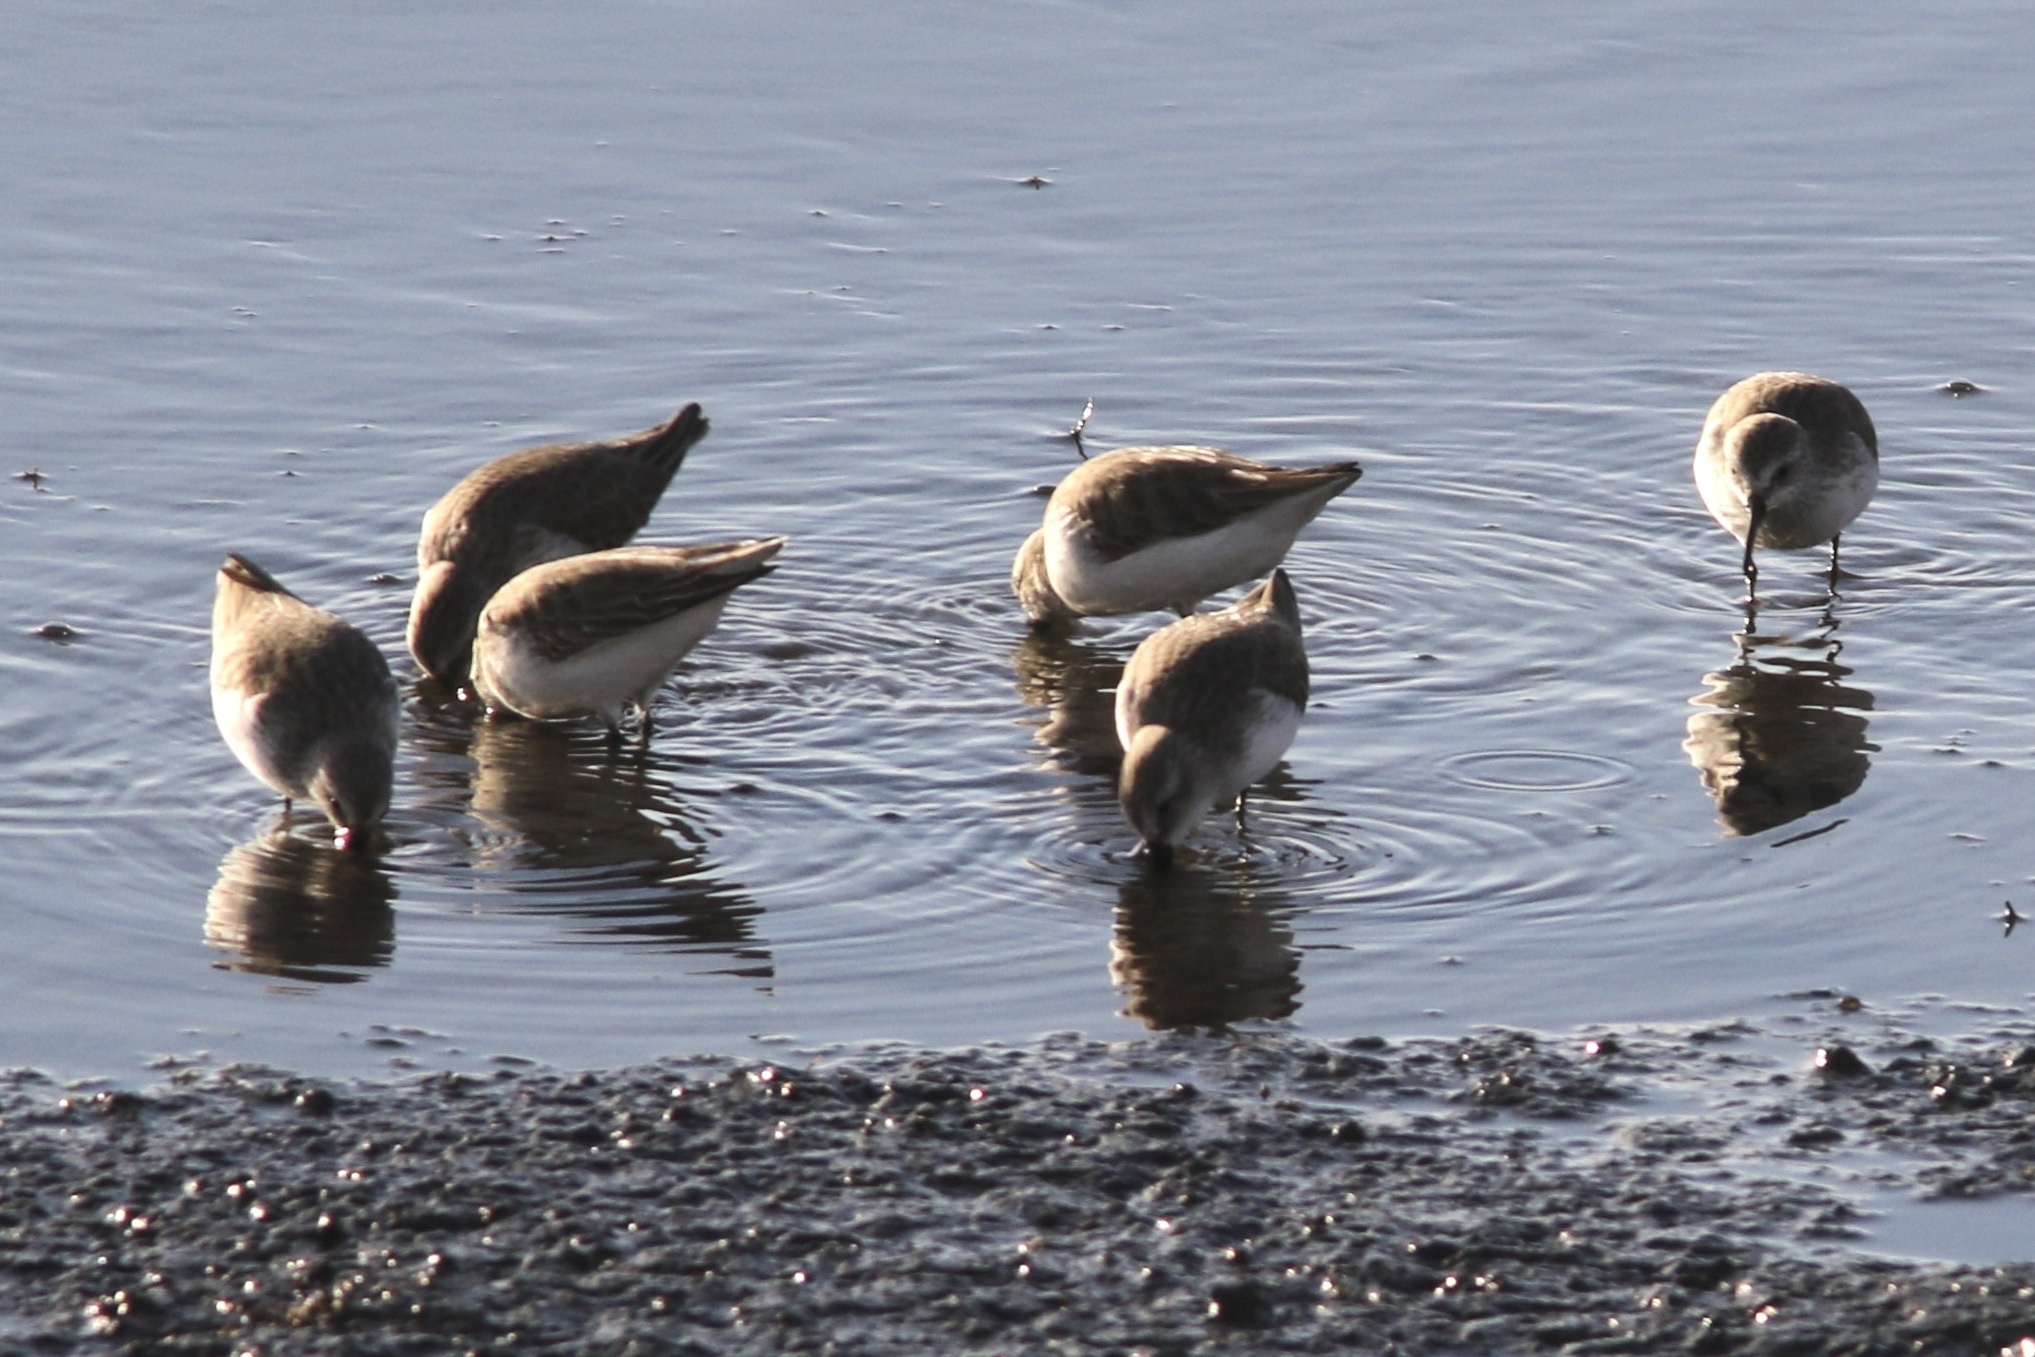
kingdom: Animalia
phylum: Chordata
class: Aves
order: Charadriiformes
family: Scolopacidae
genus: Calidris
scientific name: Calidris mauri
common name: Western sandpiper
